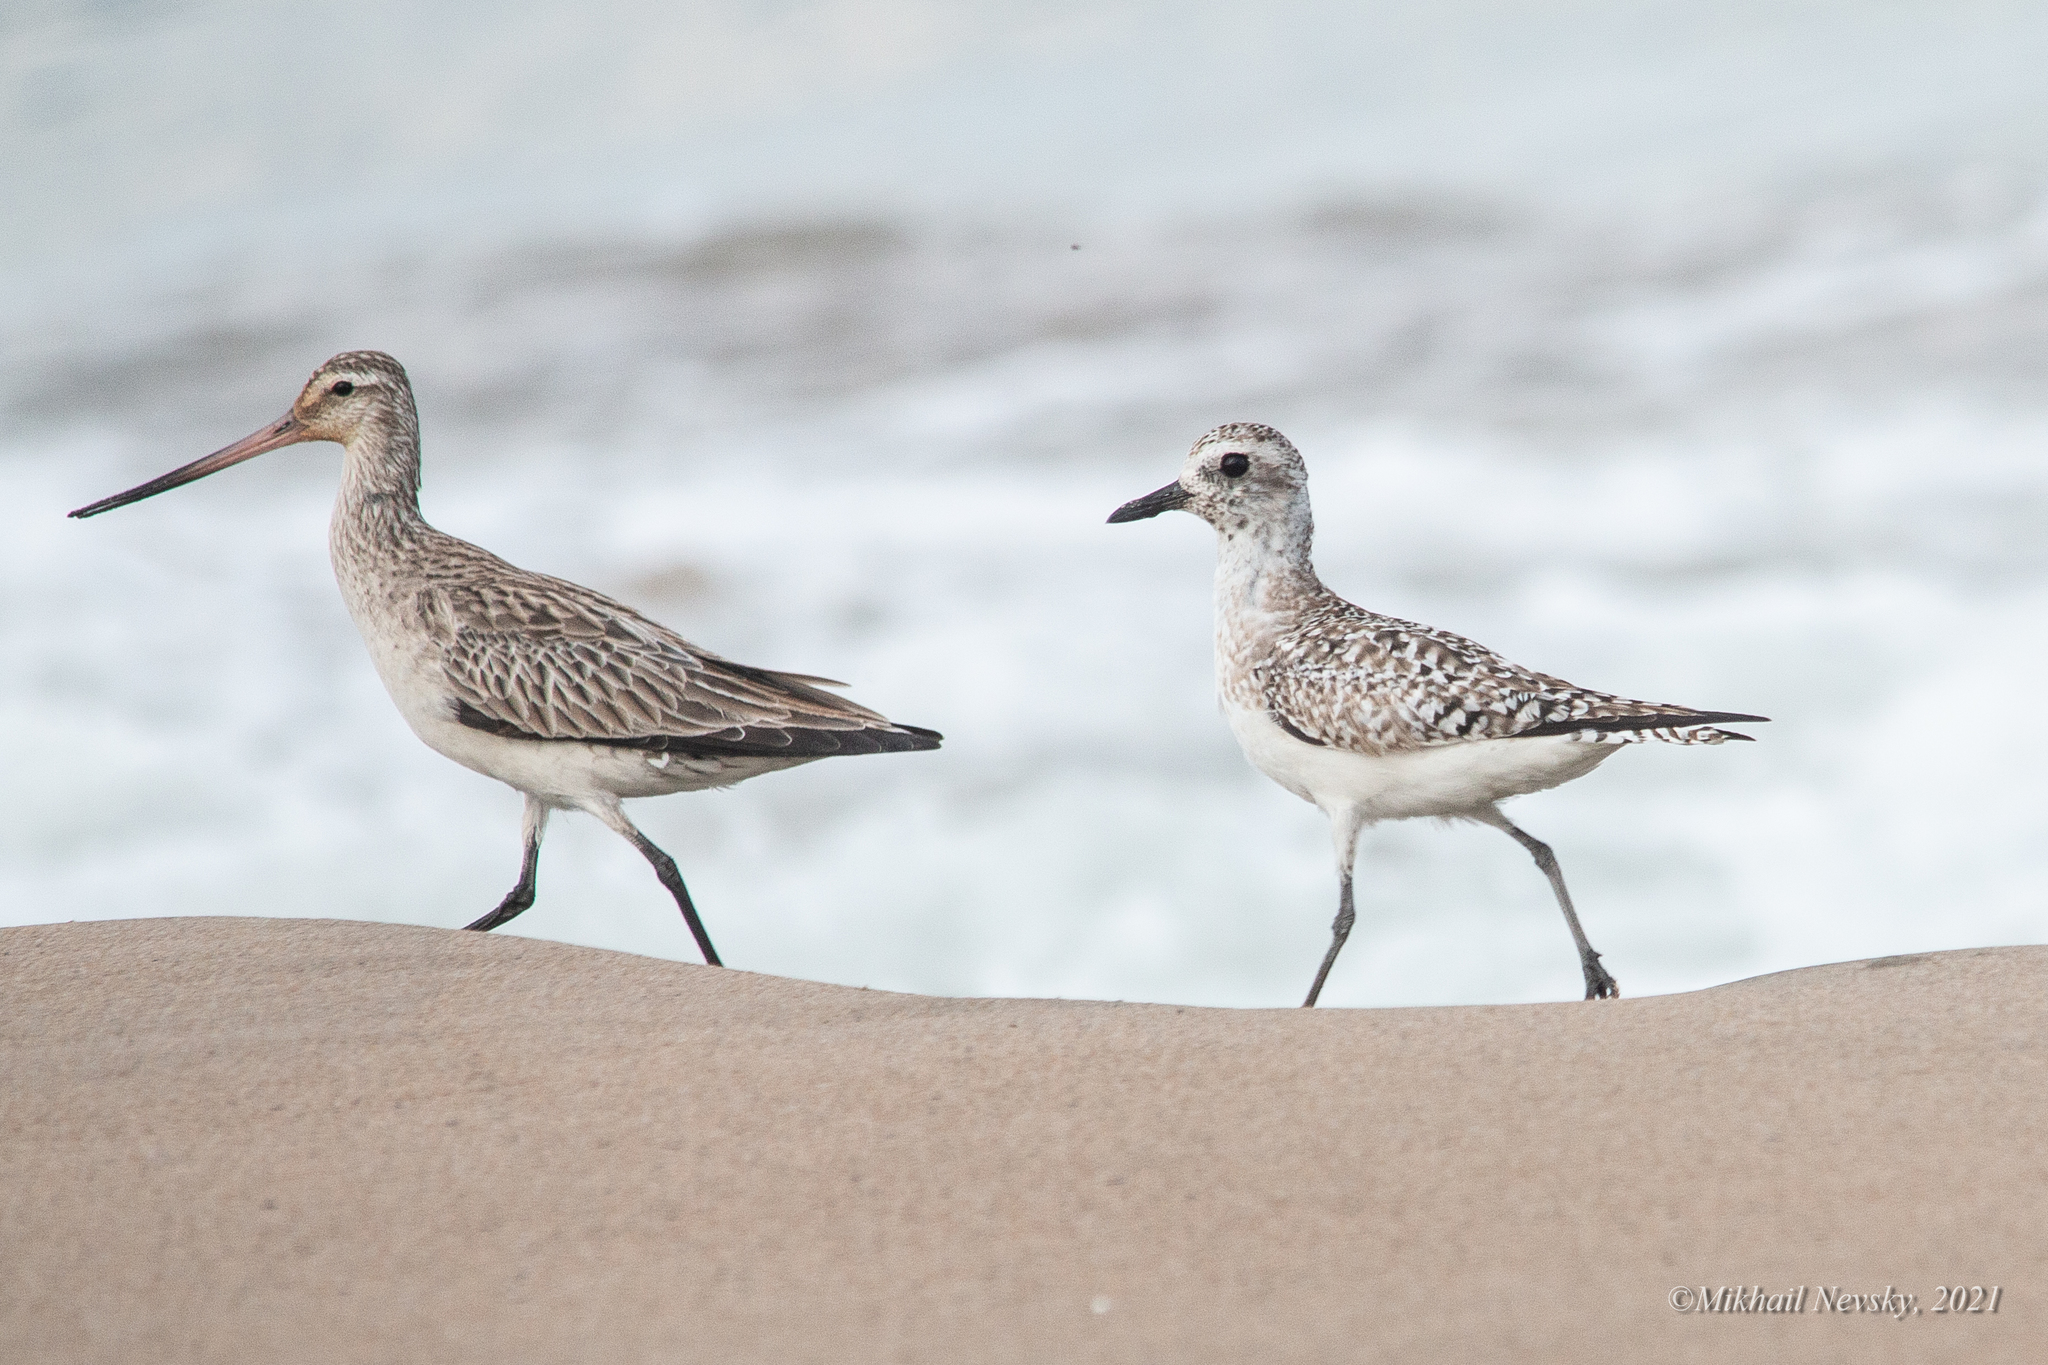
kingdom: Animalia
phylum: Chordata
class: Aves
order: Charadriiformes
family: Charadriidae
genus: Pluvialis
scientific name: Pluvialis squatarola
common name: Grey plover
